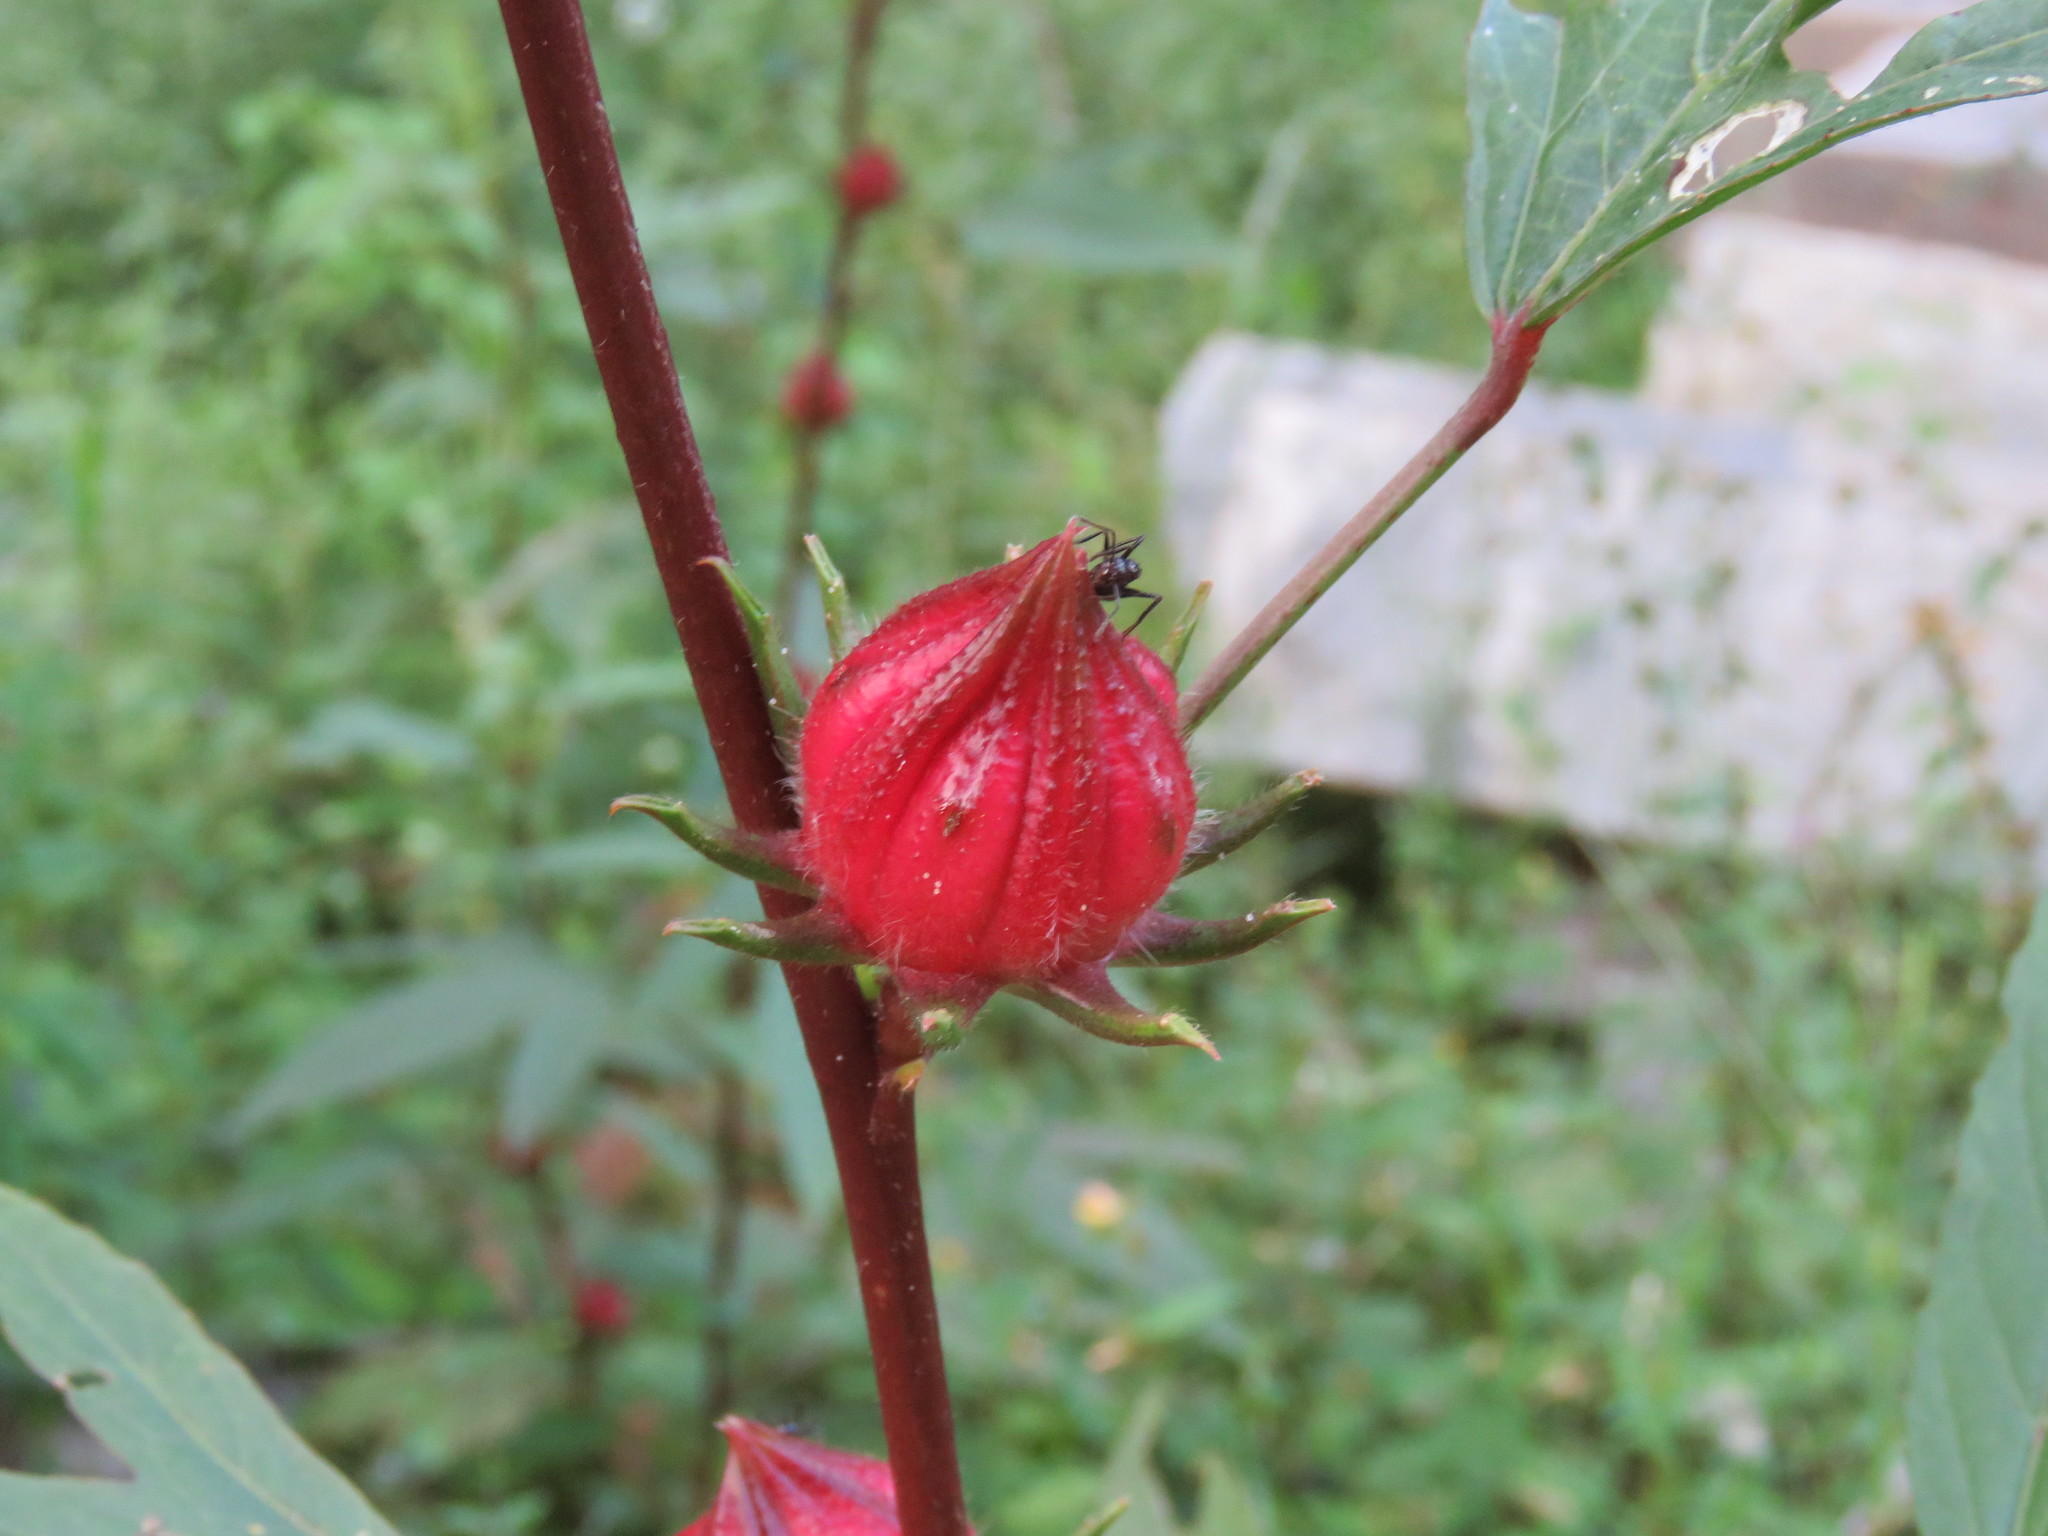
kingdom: Plantae
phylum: Tracheophyta
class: Magnoliopsida
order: Malvales
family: Malvaceae
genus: Hibiscus
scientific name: Hibiscus sabdariffa
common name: Roselle
